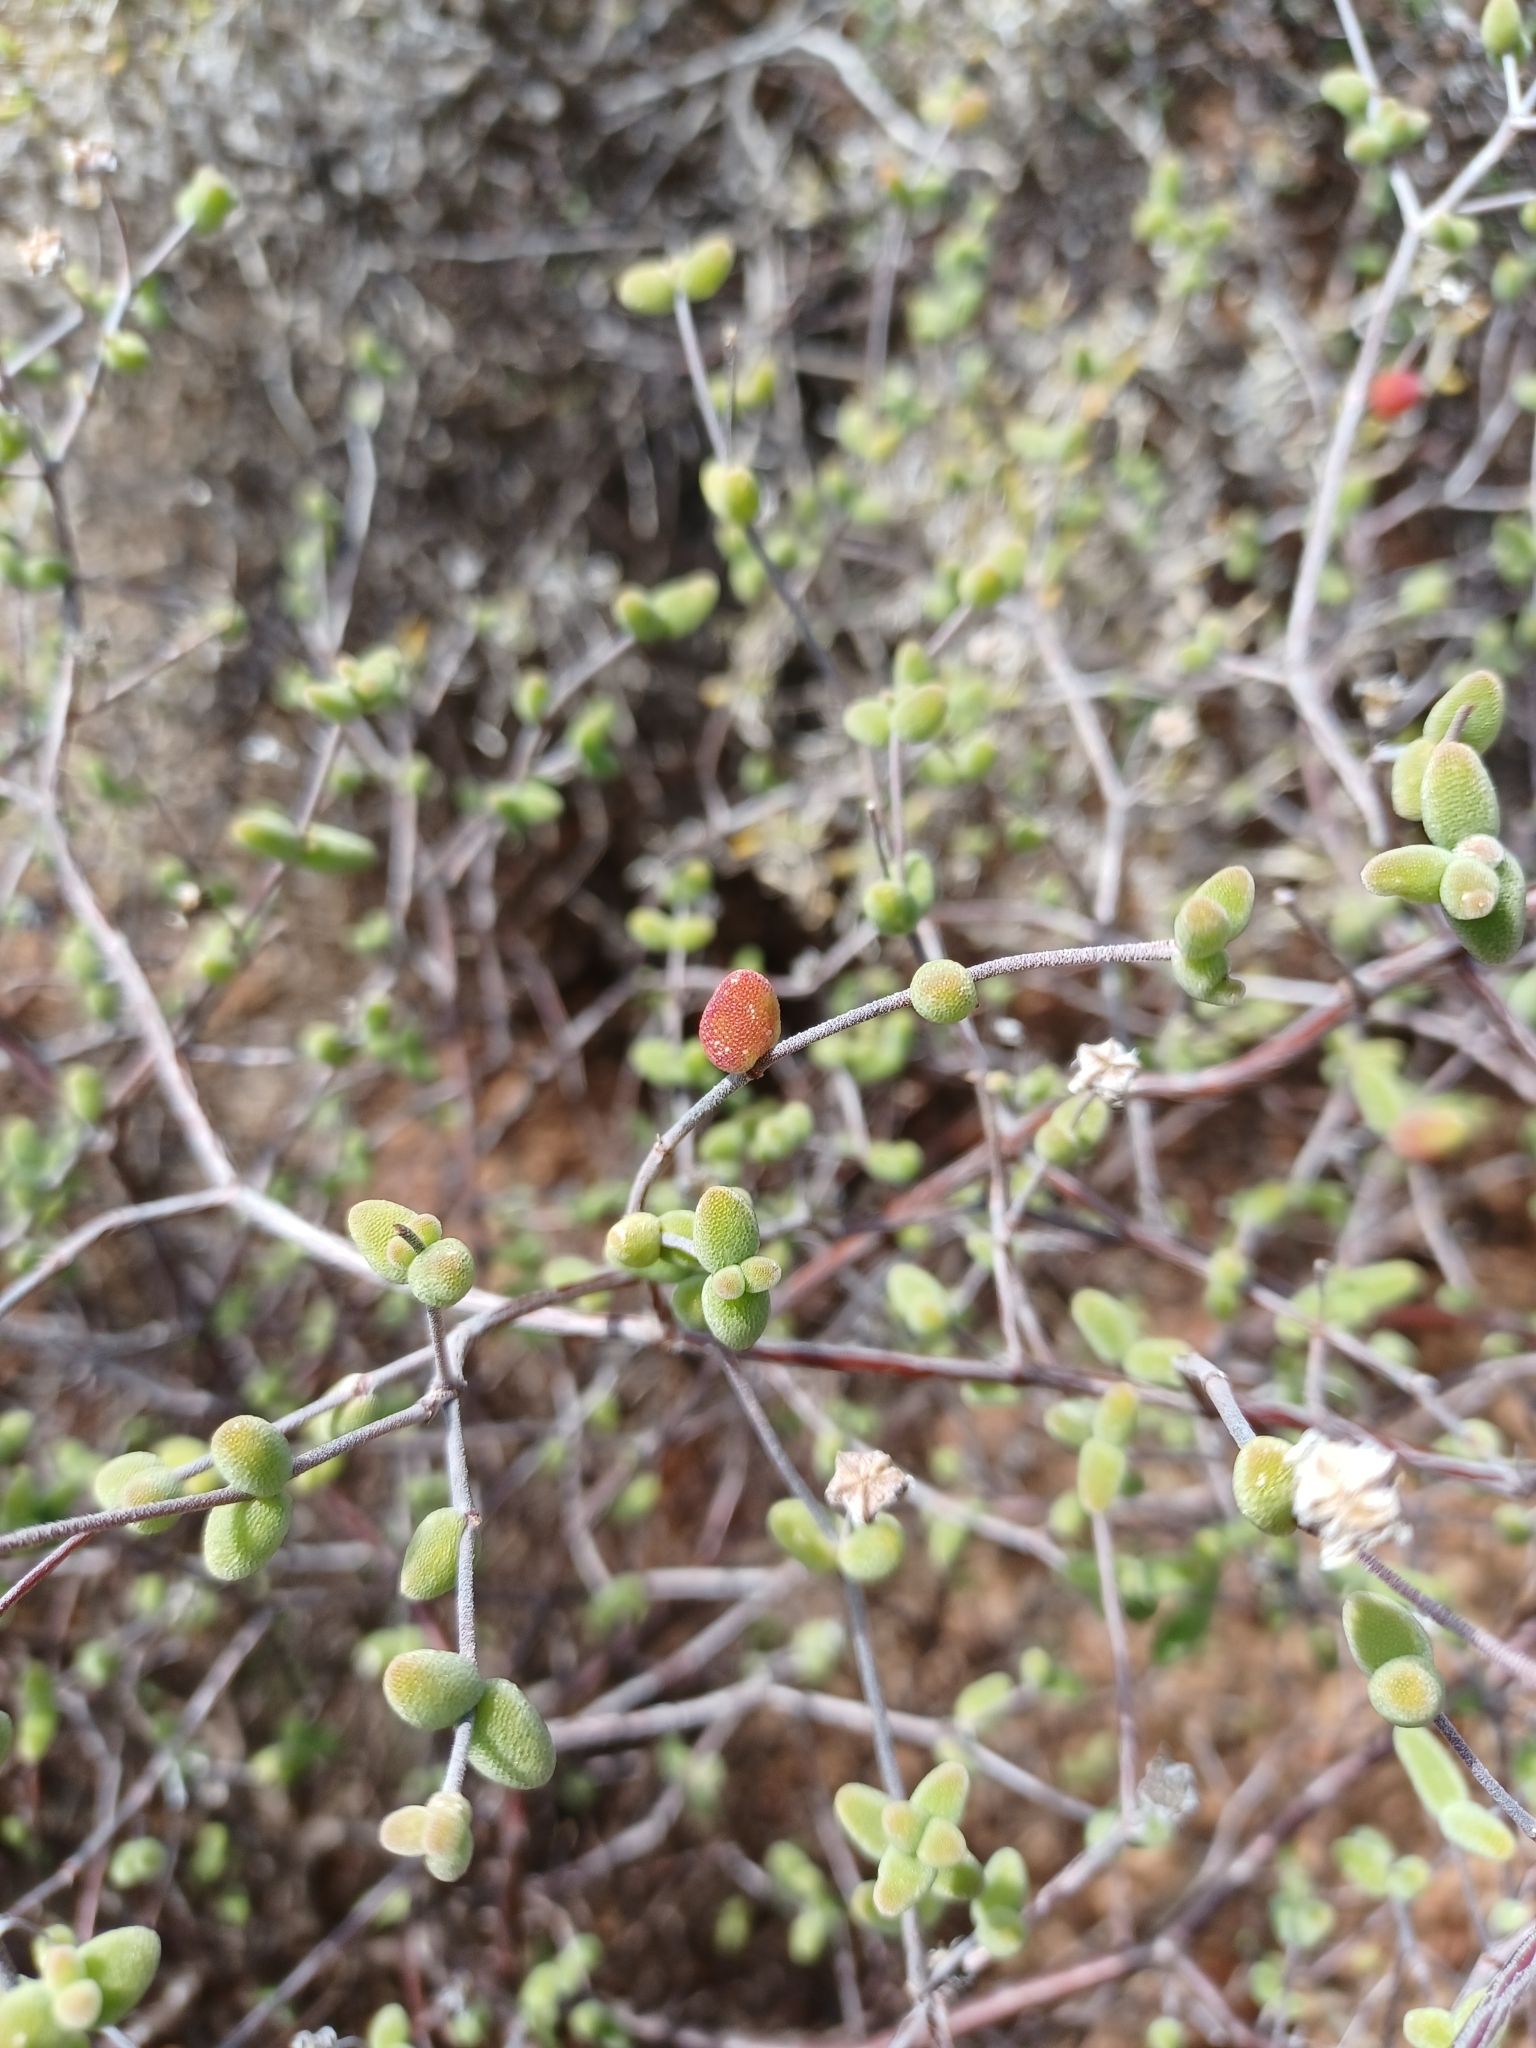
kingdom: Plantae
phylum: Tracheophyta
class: Magnoliopsida
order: Caryophyllales
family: Aizoaceae
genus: Drosanthemum
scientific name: Drosanthemum globosum
